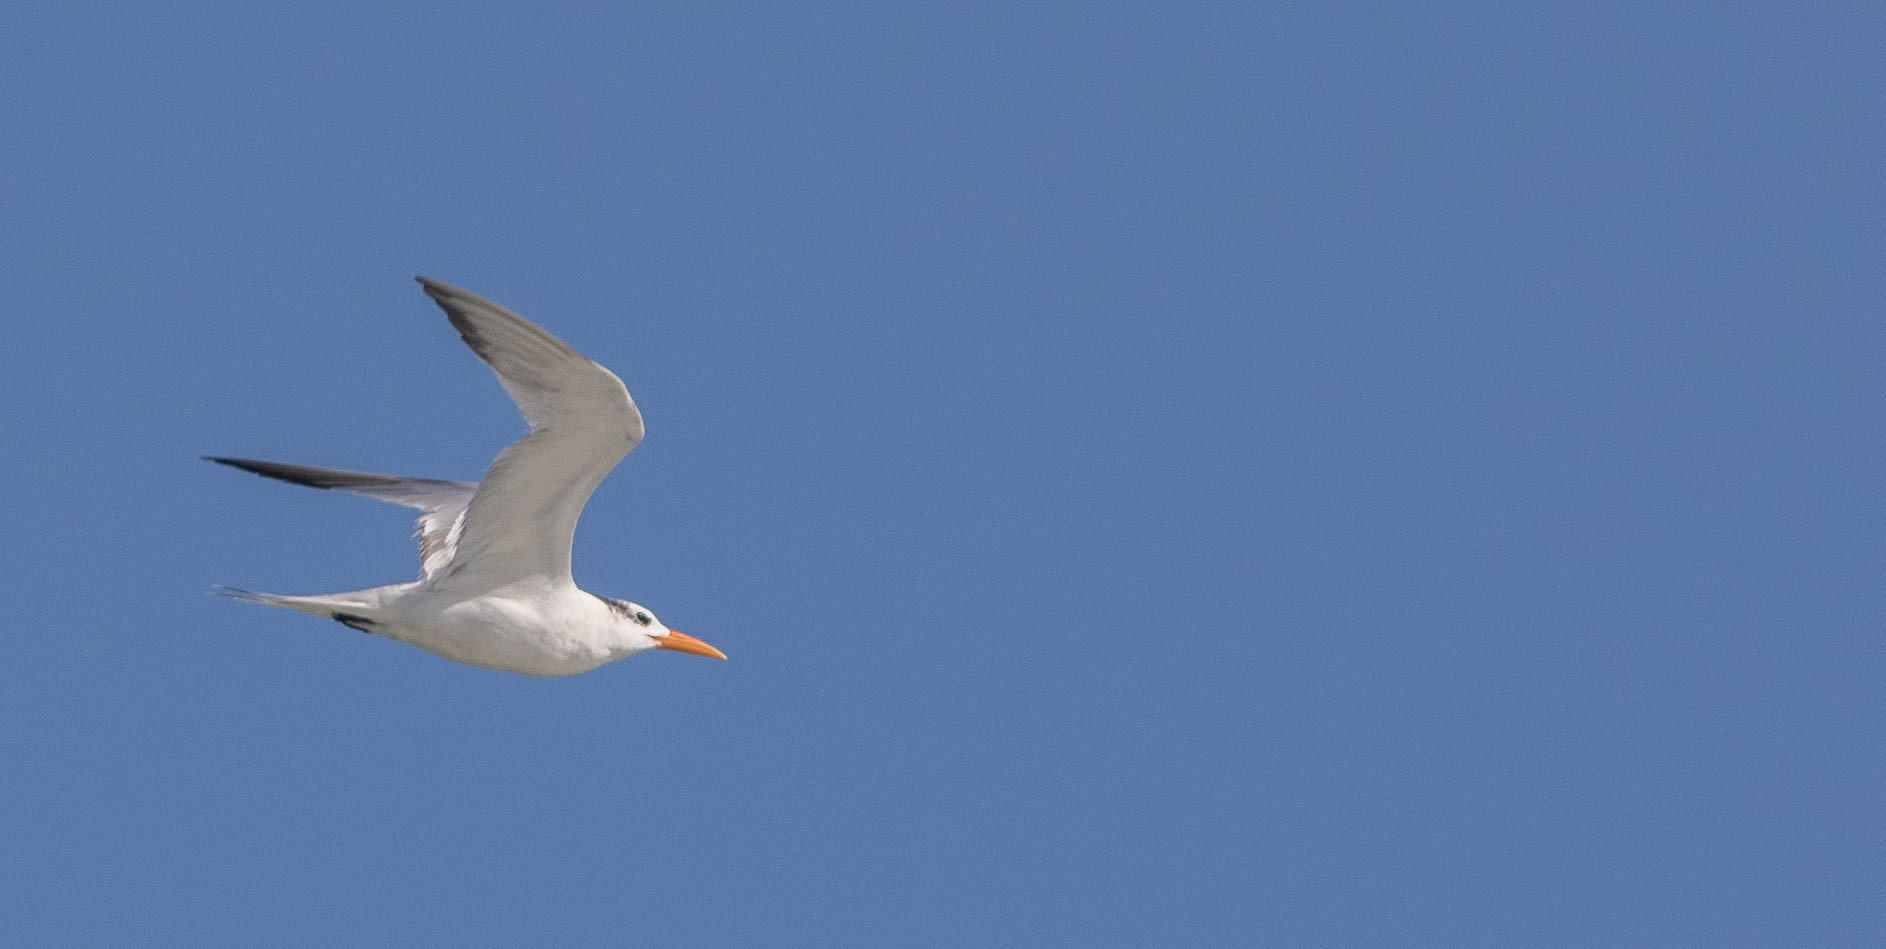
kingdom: Animalia
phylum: Chordata
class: Aves
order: Charadriiformes
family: Laridae
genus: Thalasseus
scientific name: Thalasseus maximus
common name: Royal tern
